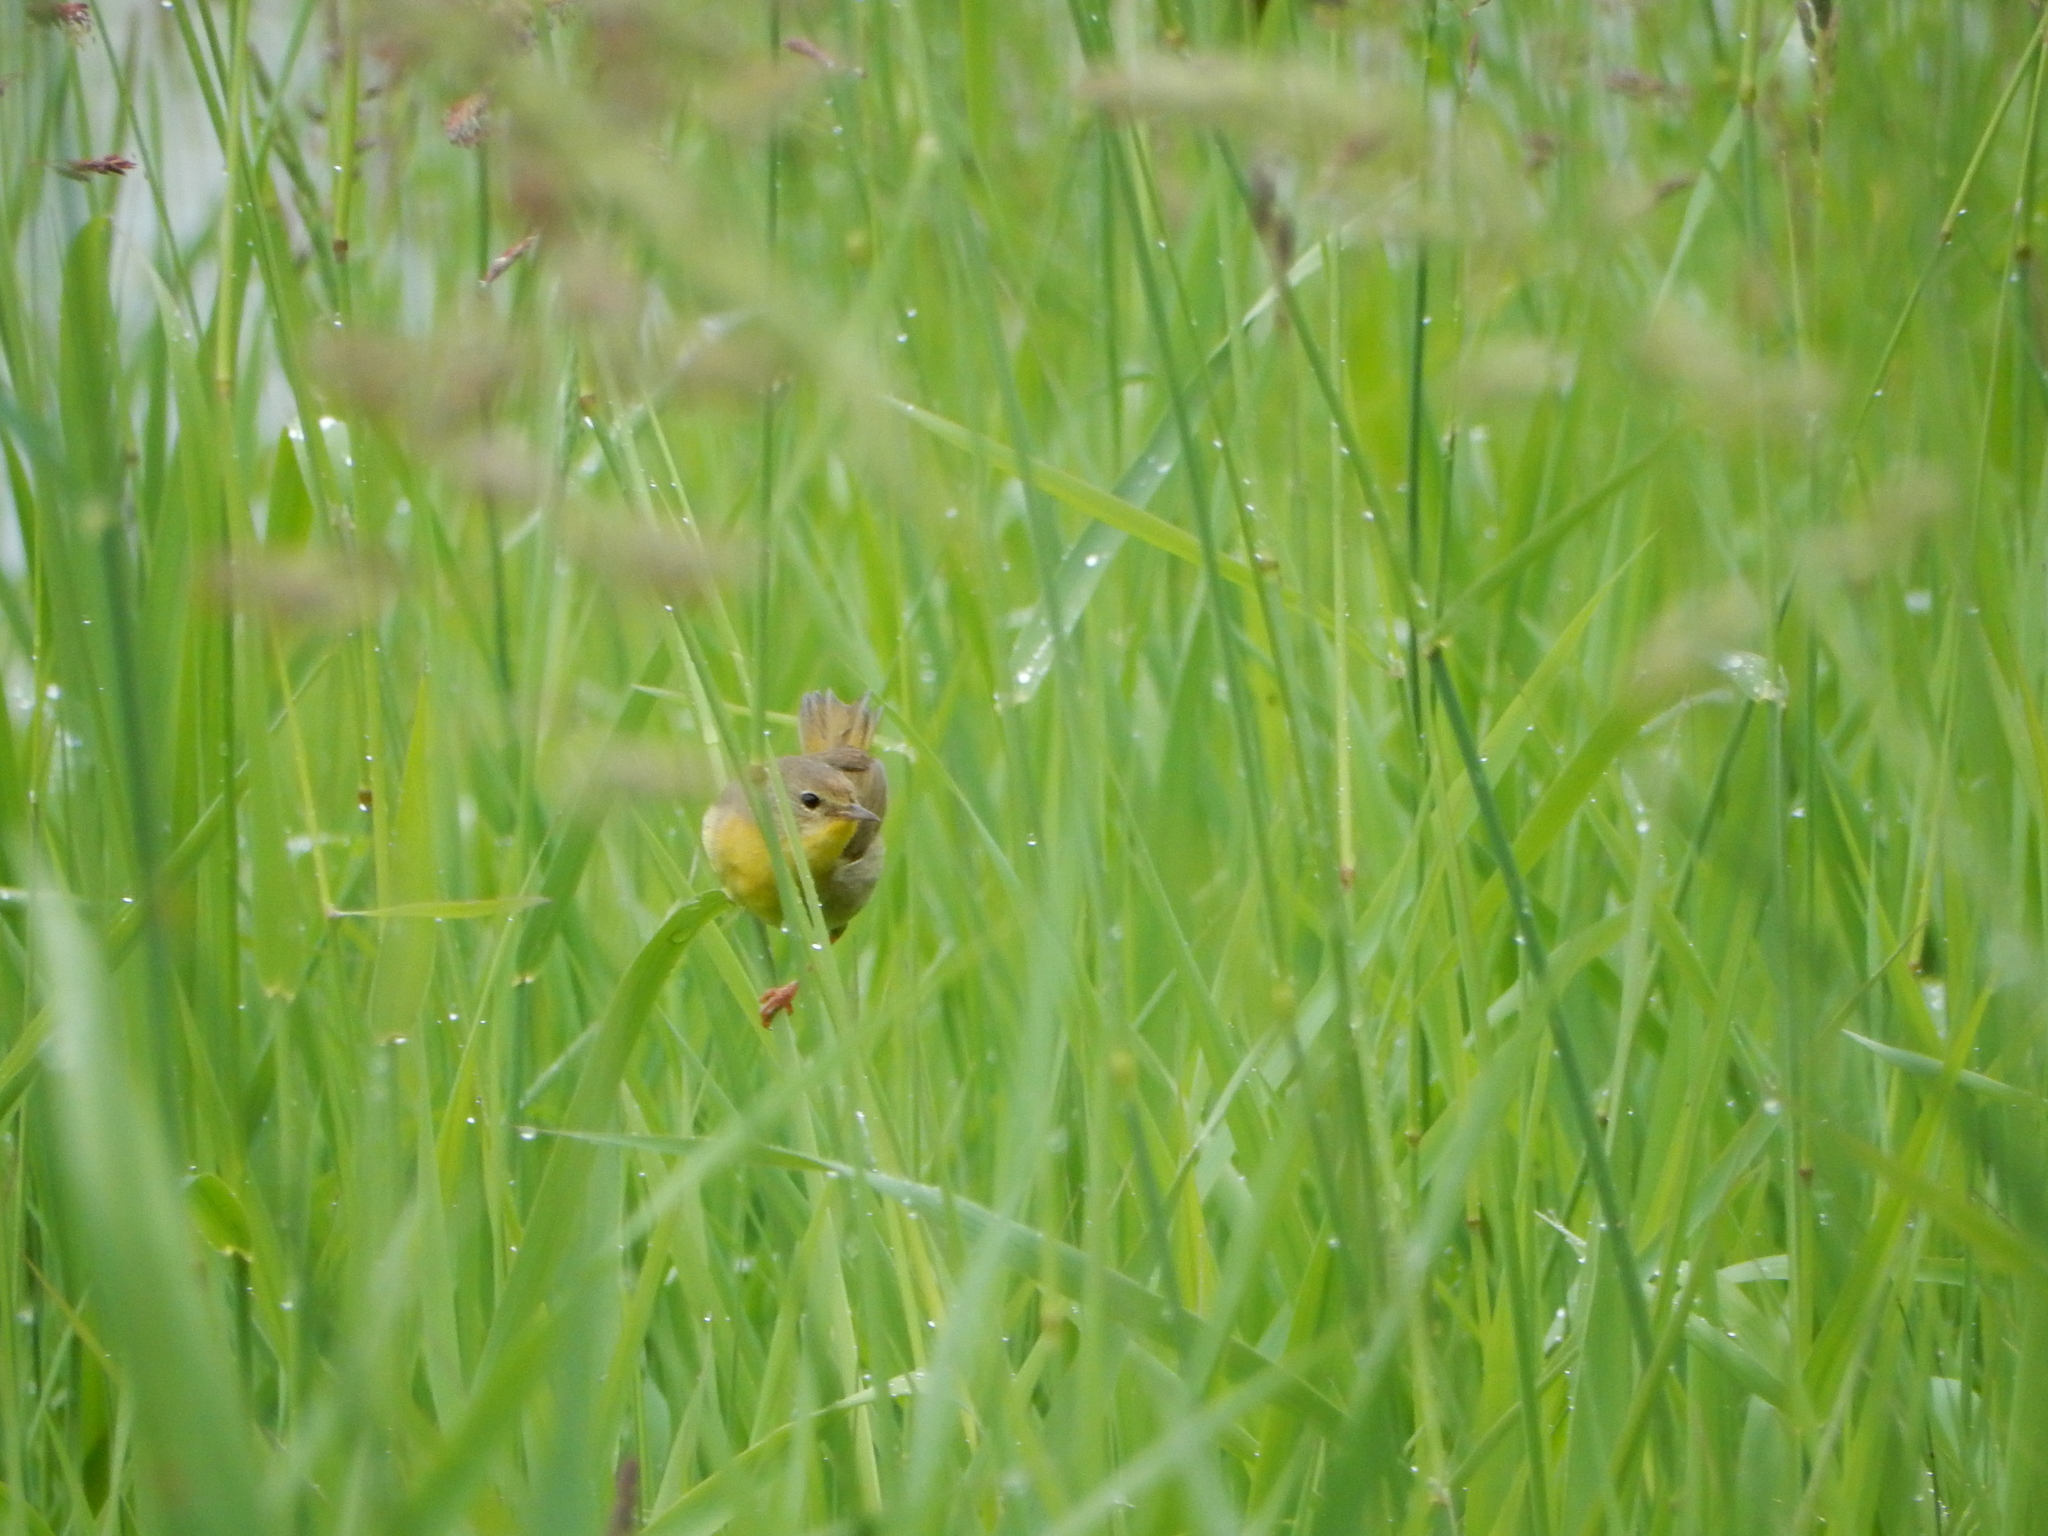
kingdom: Animalia
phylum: Chordata
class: Aves
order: Passeriformes
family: Parulidae
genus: Geothlypis
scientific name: Geothlypis trichas
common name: Common yellowthroat
